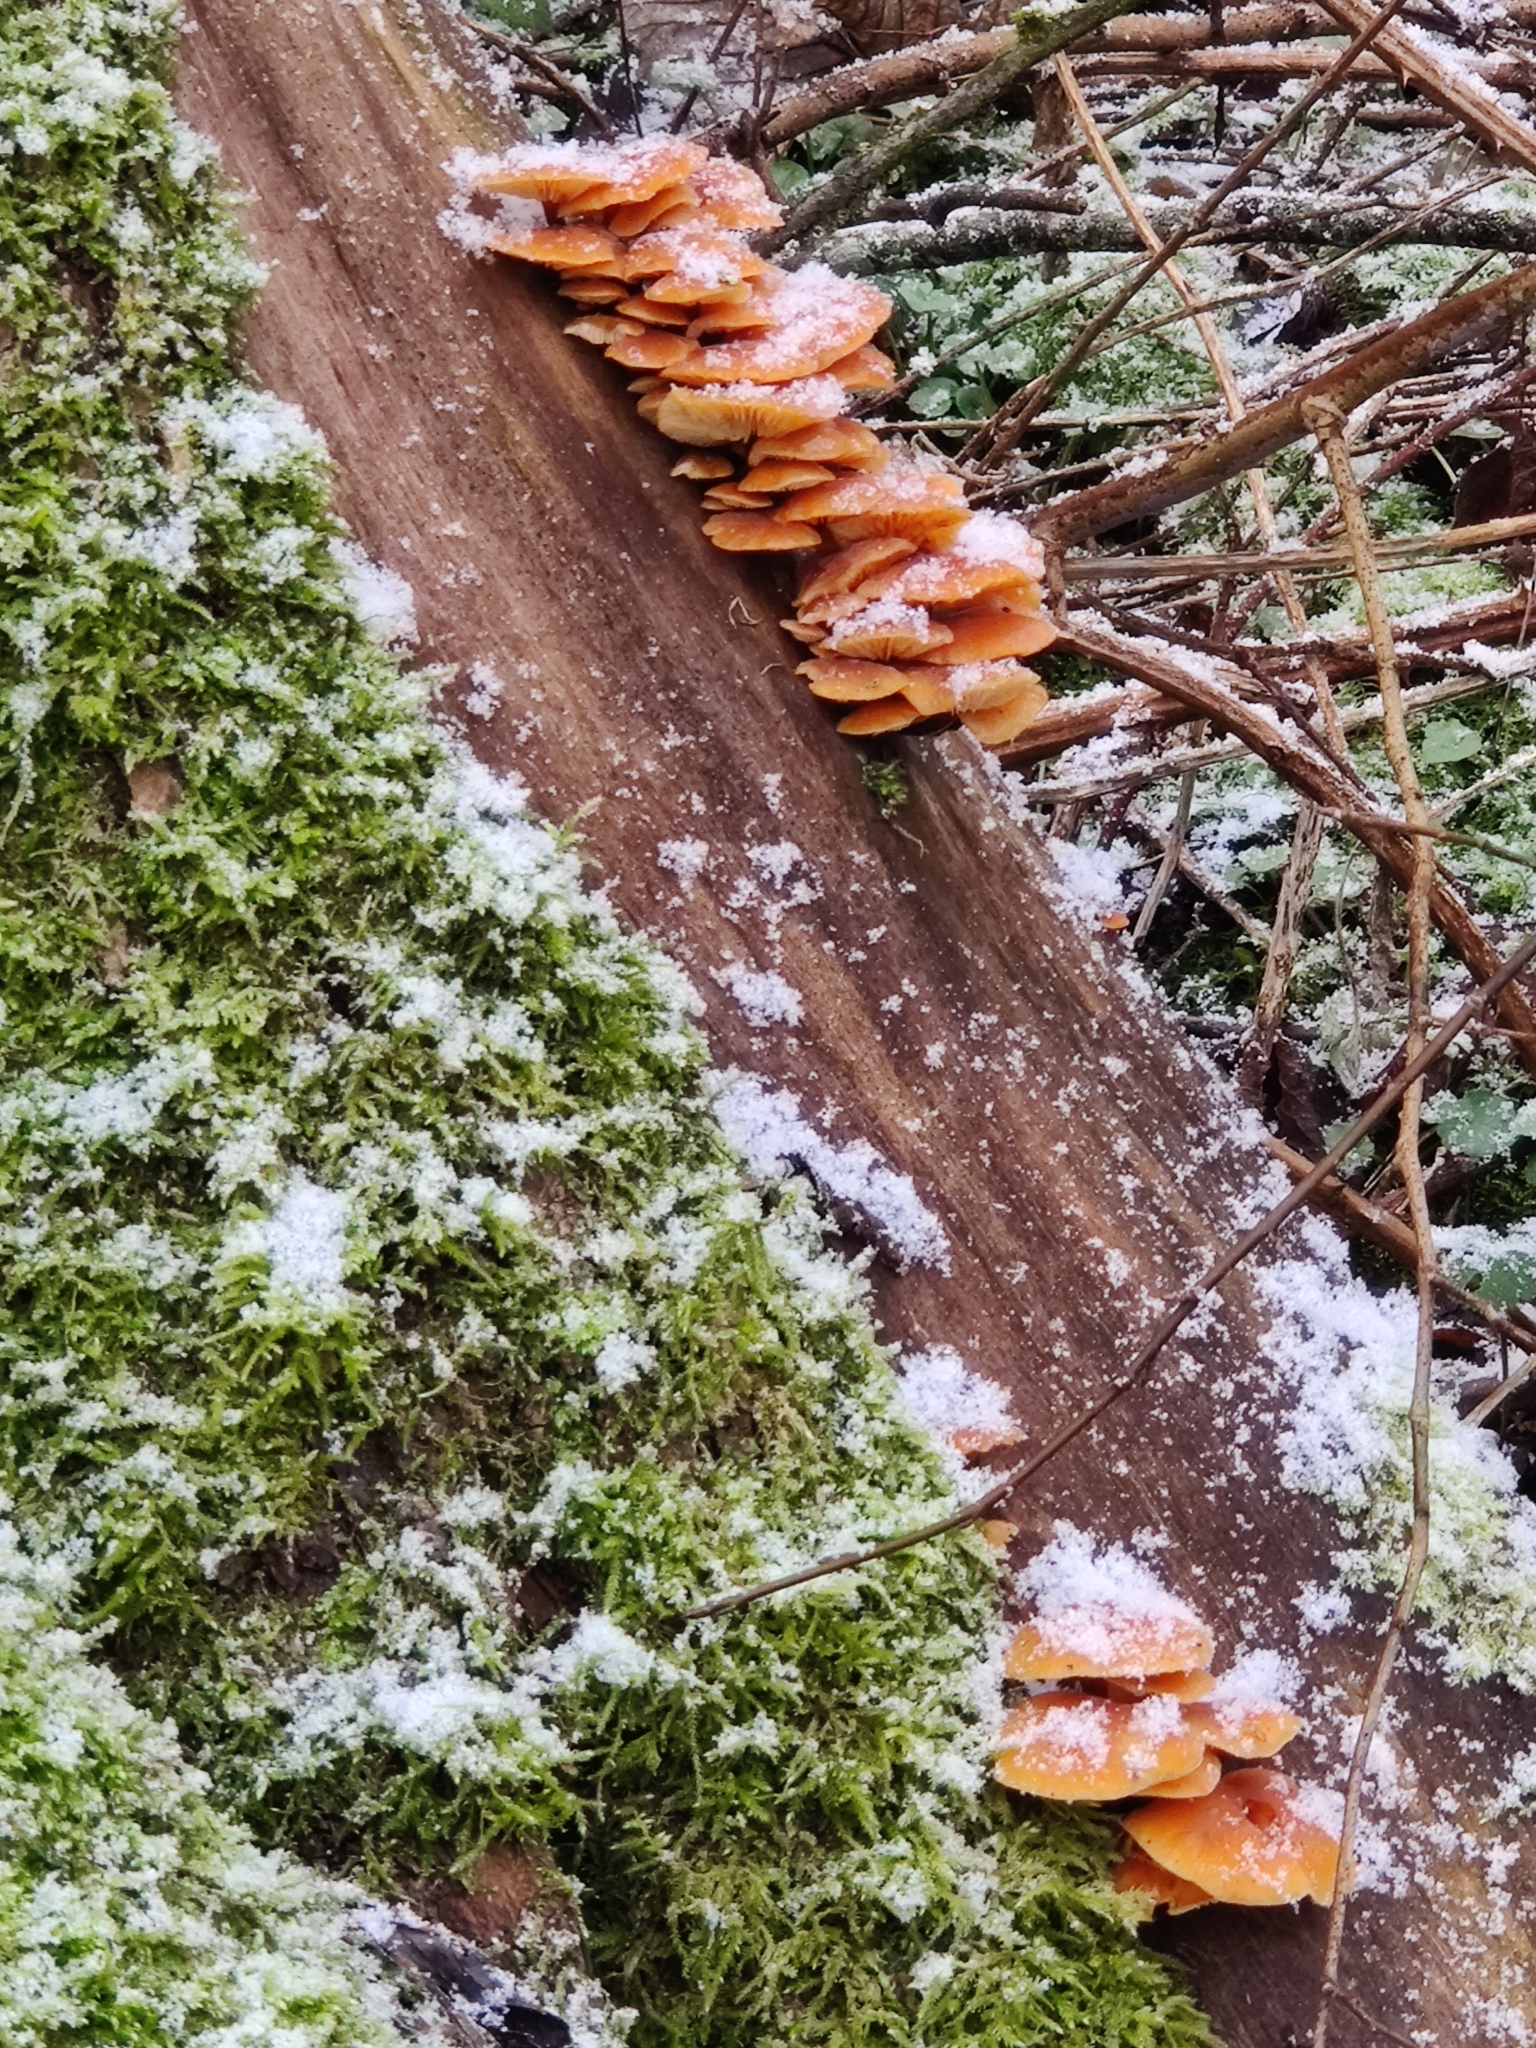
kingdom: Fungi
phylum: Basidiomycota
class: Agaricomycetes
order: Agaricales
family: Physalacriaceae
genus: Flammulina
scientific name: Flammulina
